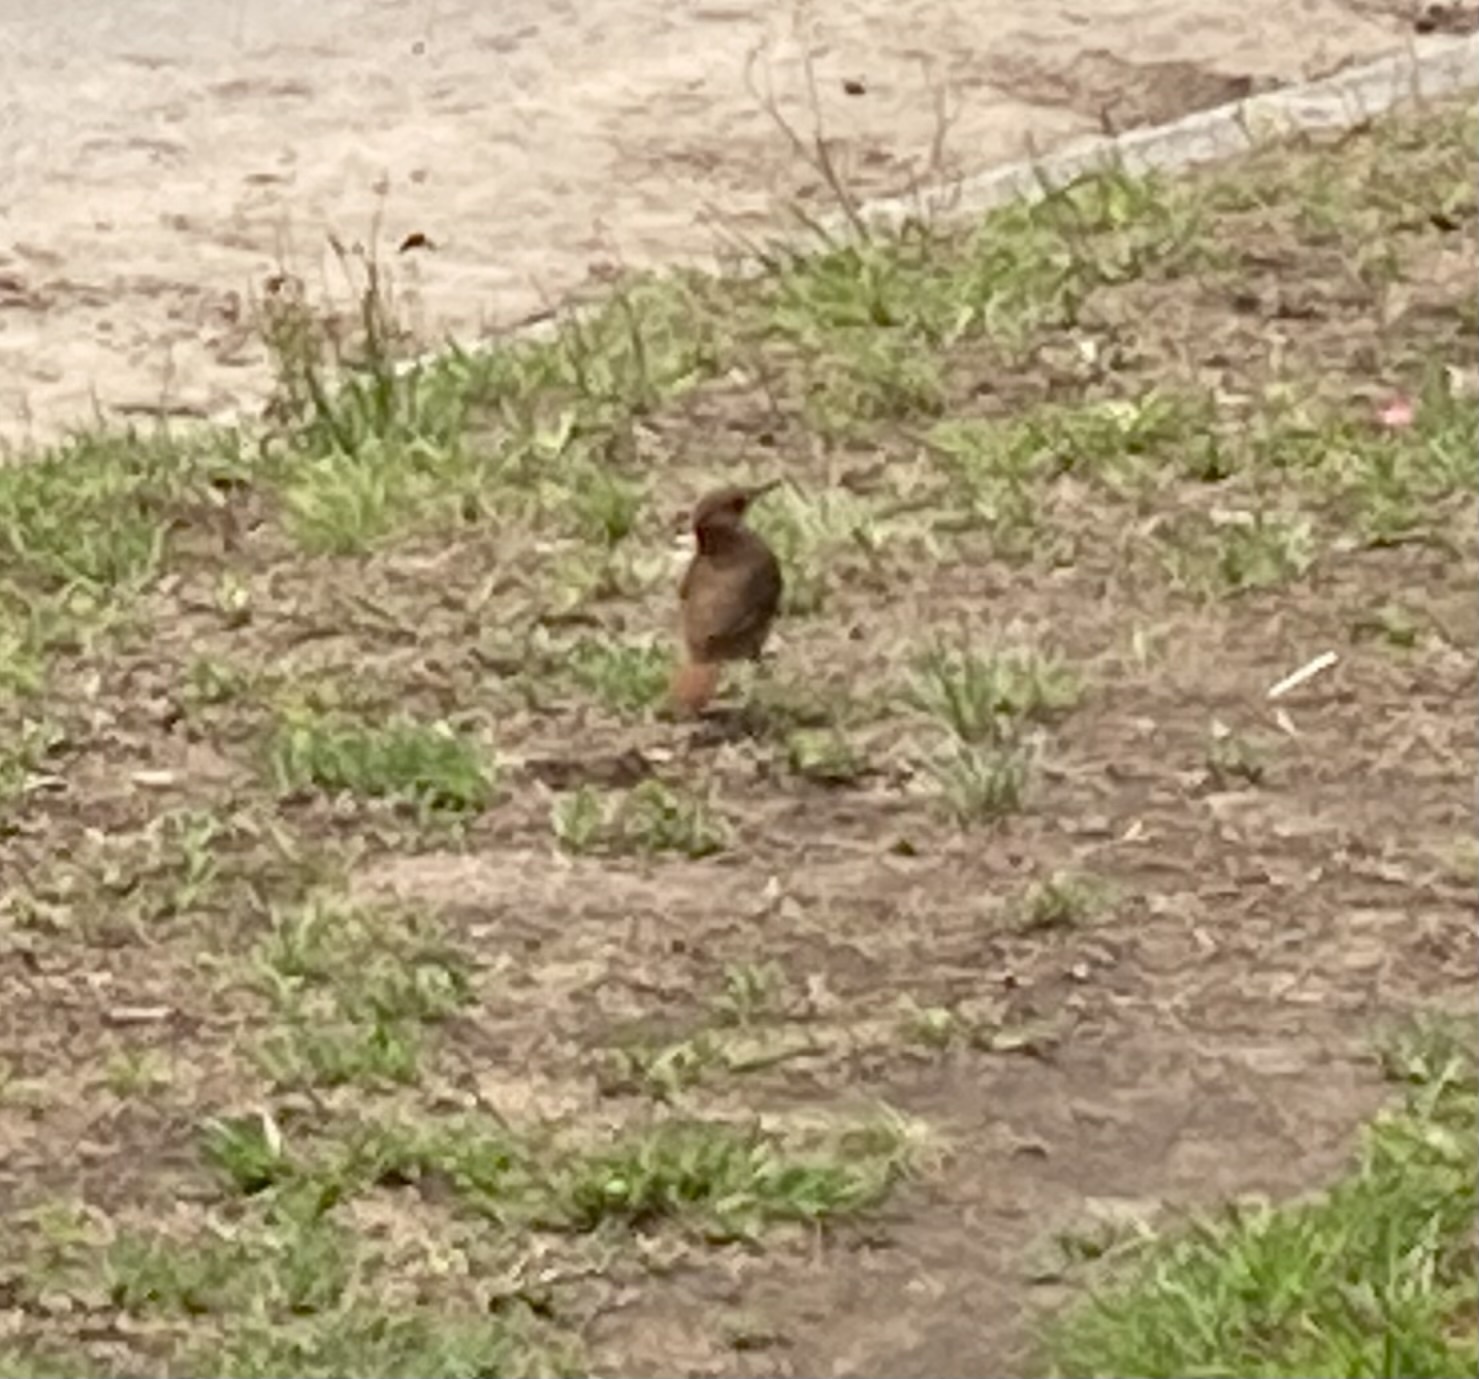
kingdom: Animalia
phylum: Chordata
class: Aves
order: Passeriformes
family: Furnariidae
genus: Furnarius
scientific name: Furnarius rufus
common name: Rufous hornero
